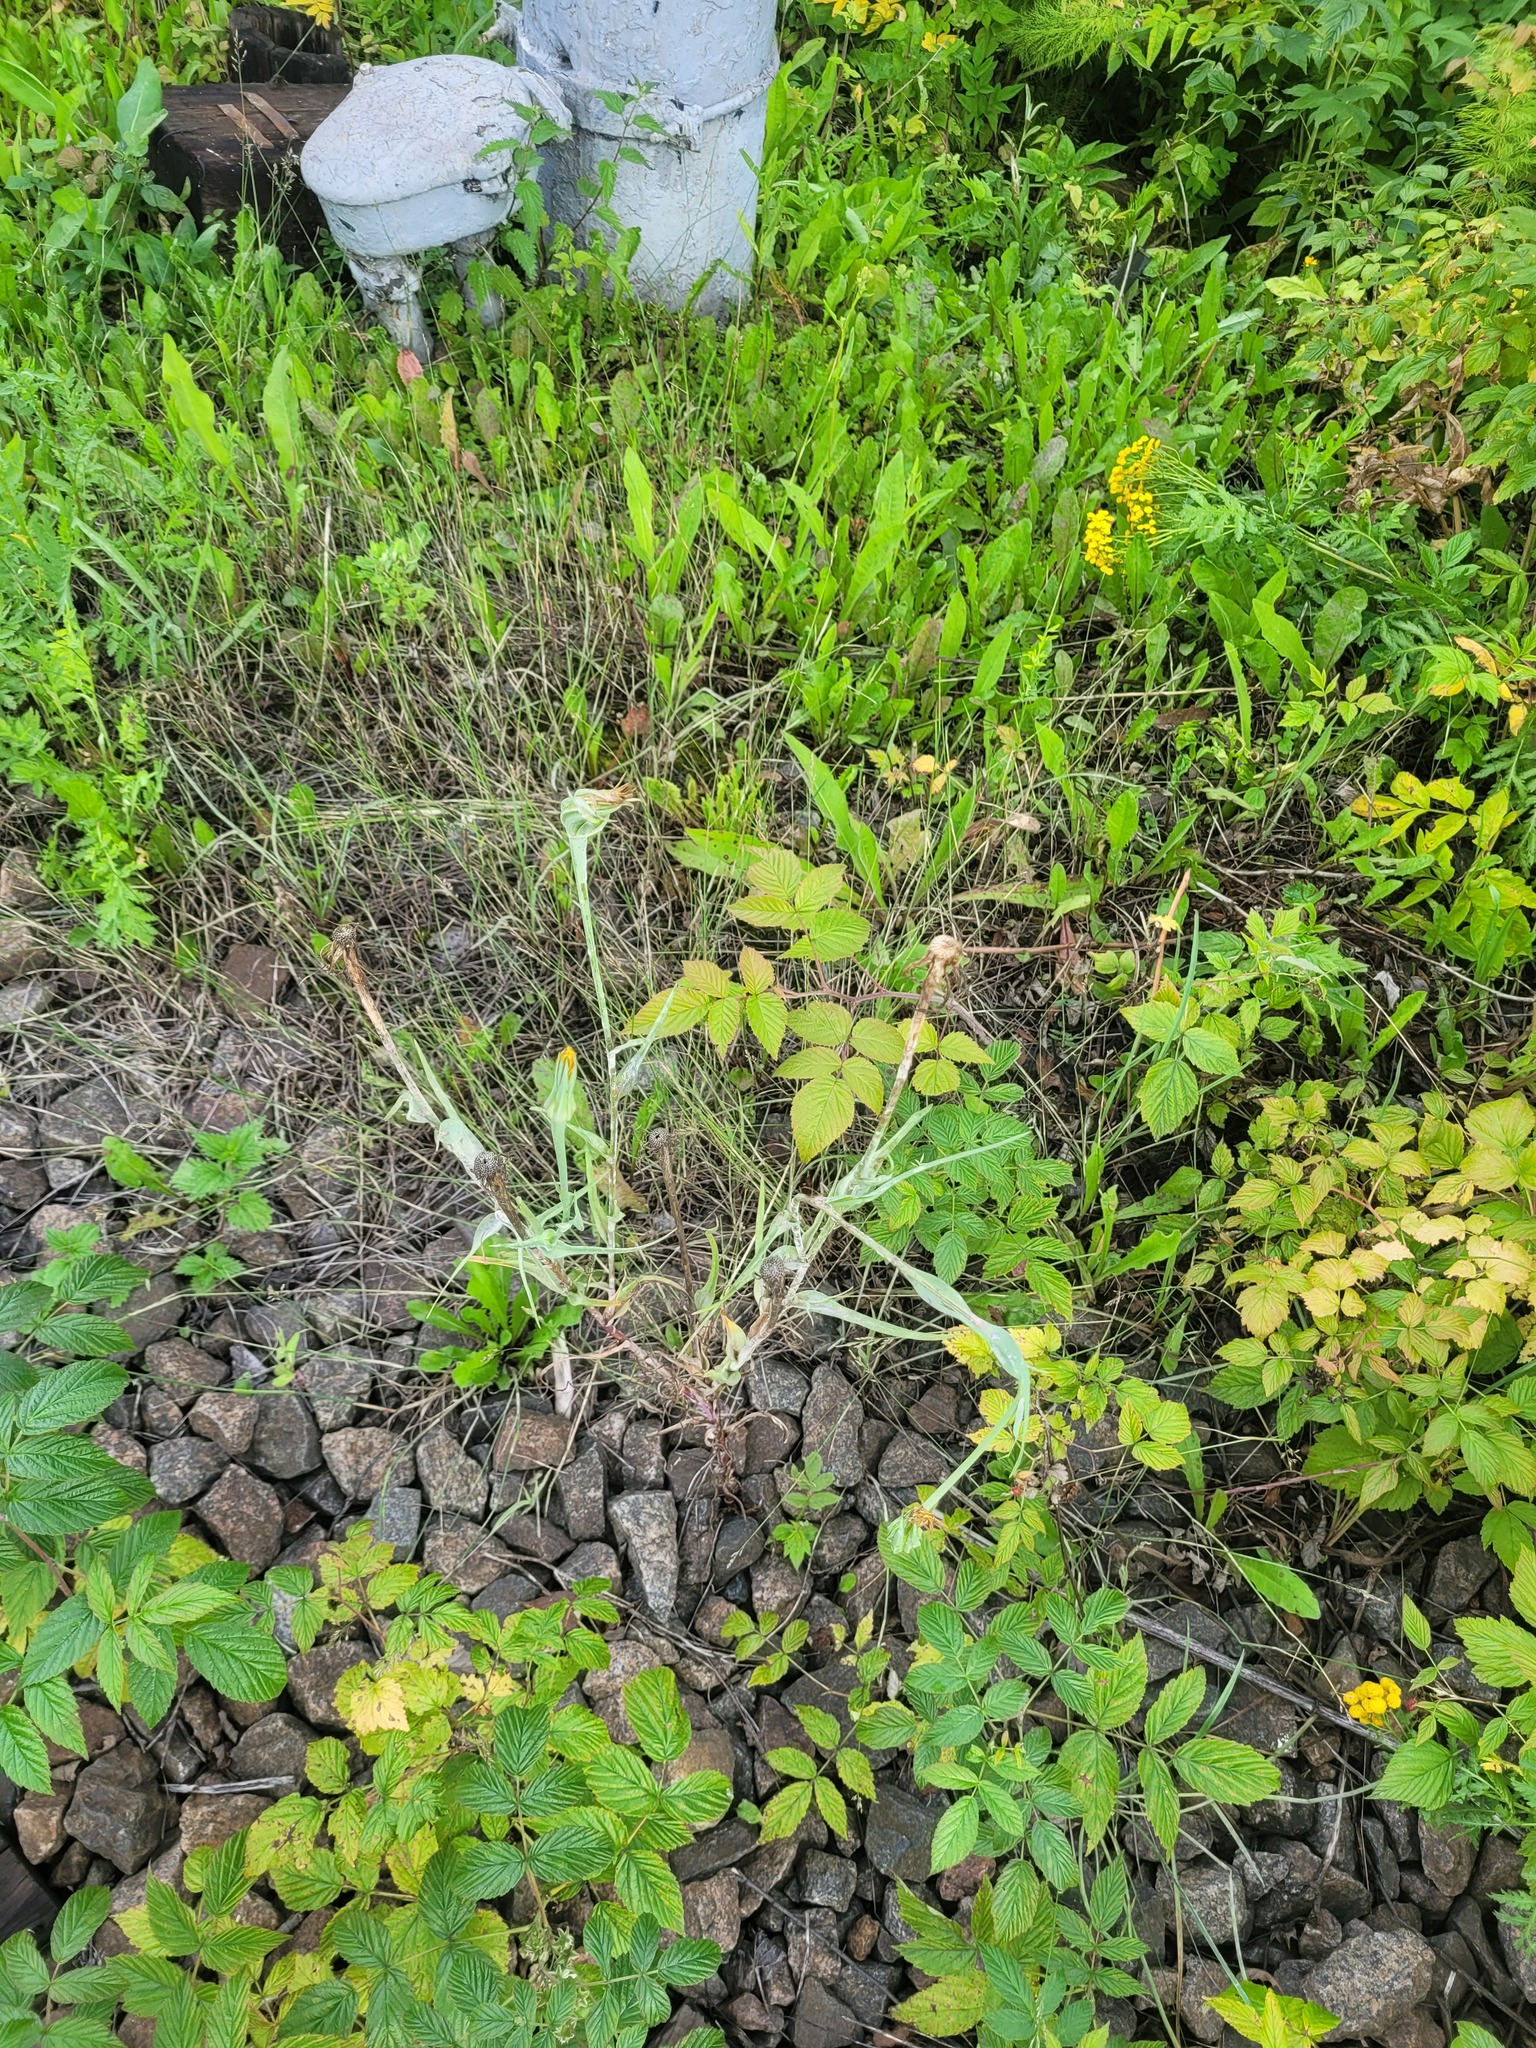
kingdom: Plantae
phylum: Tracheophyta
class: Magnoliopsida
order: Asterales
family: Asteraceae
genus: Tragopogon
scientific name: Tragopogon dubius
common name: Yellow salsify
